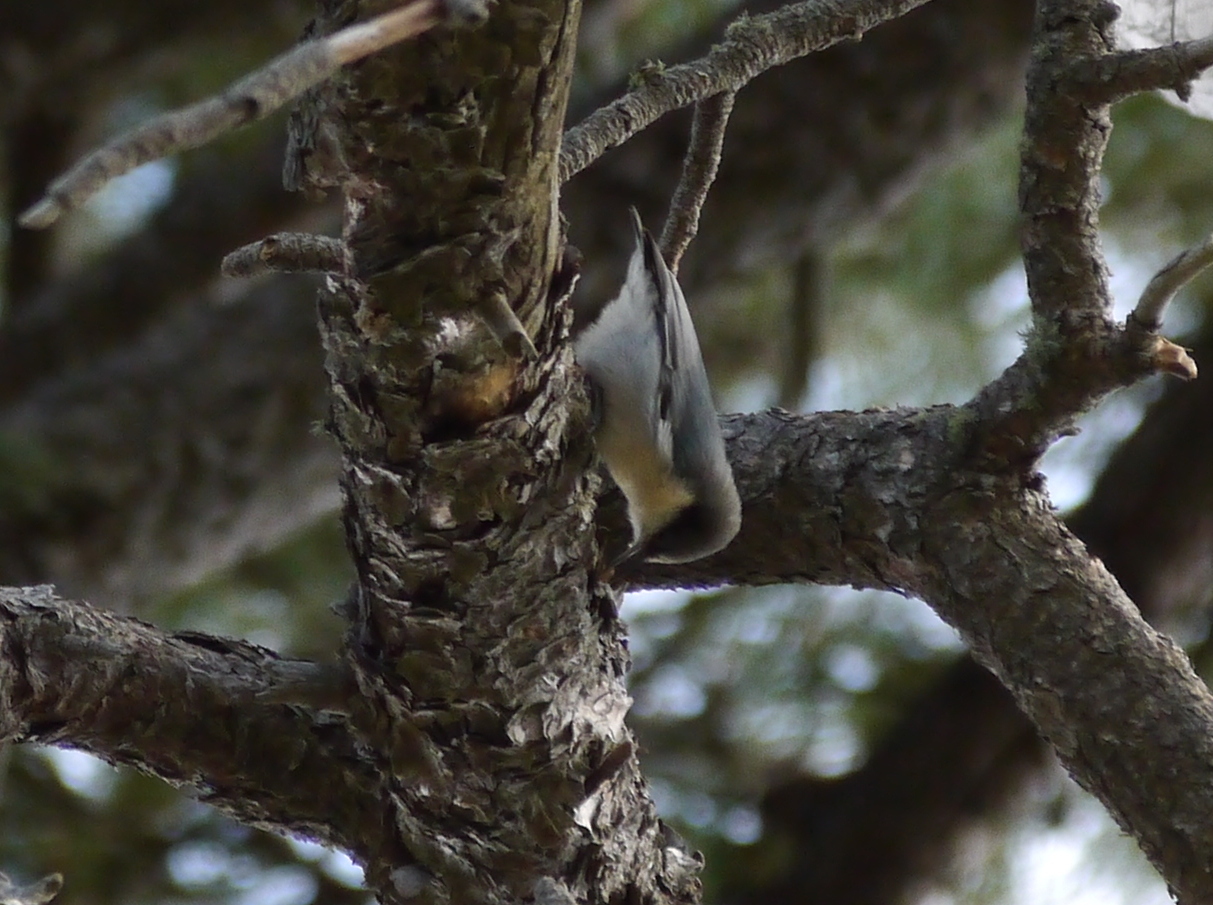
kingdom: Animalia
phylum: Chordata
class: Aves
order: Passeriformes
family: Sittidae
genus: Sitta
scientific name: Sitta pygmaea
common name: Pygmy nuthatch
